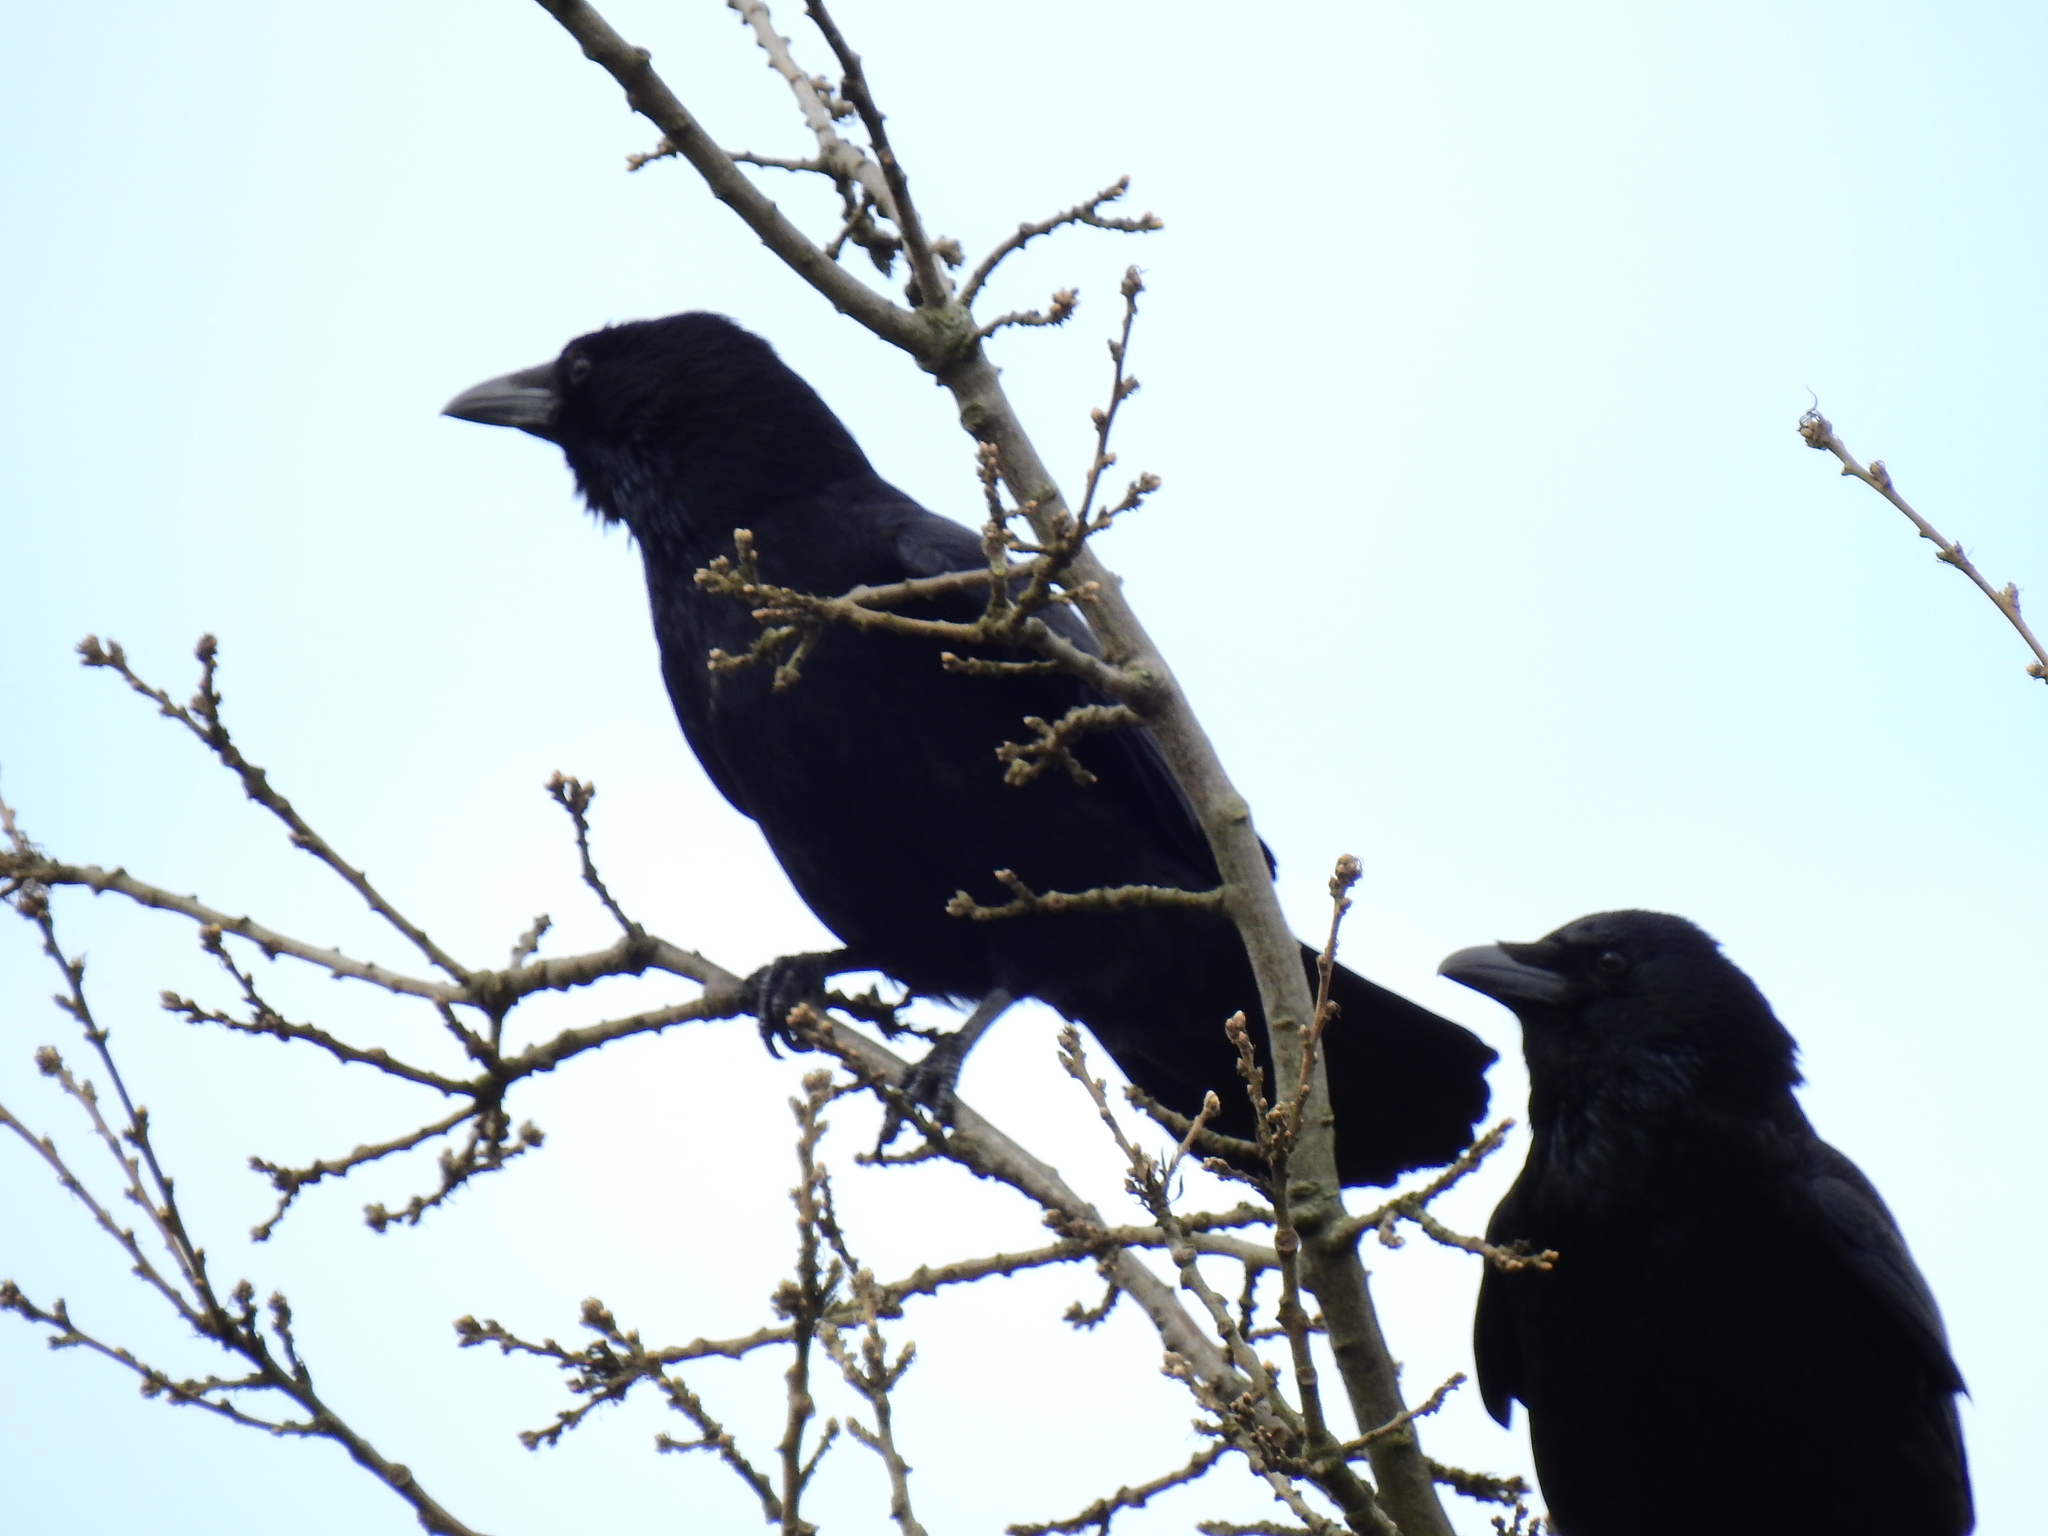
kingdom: Animalia
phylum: Chordata
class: Aves
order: Passeriformes
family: Corvidae
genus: Corvus
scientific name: Corvus corone
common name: Carrion crow
